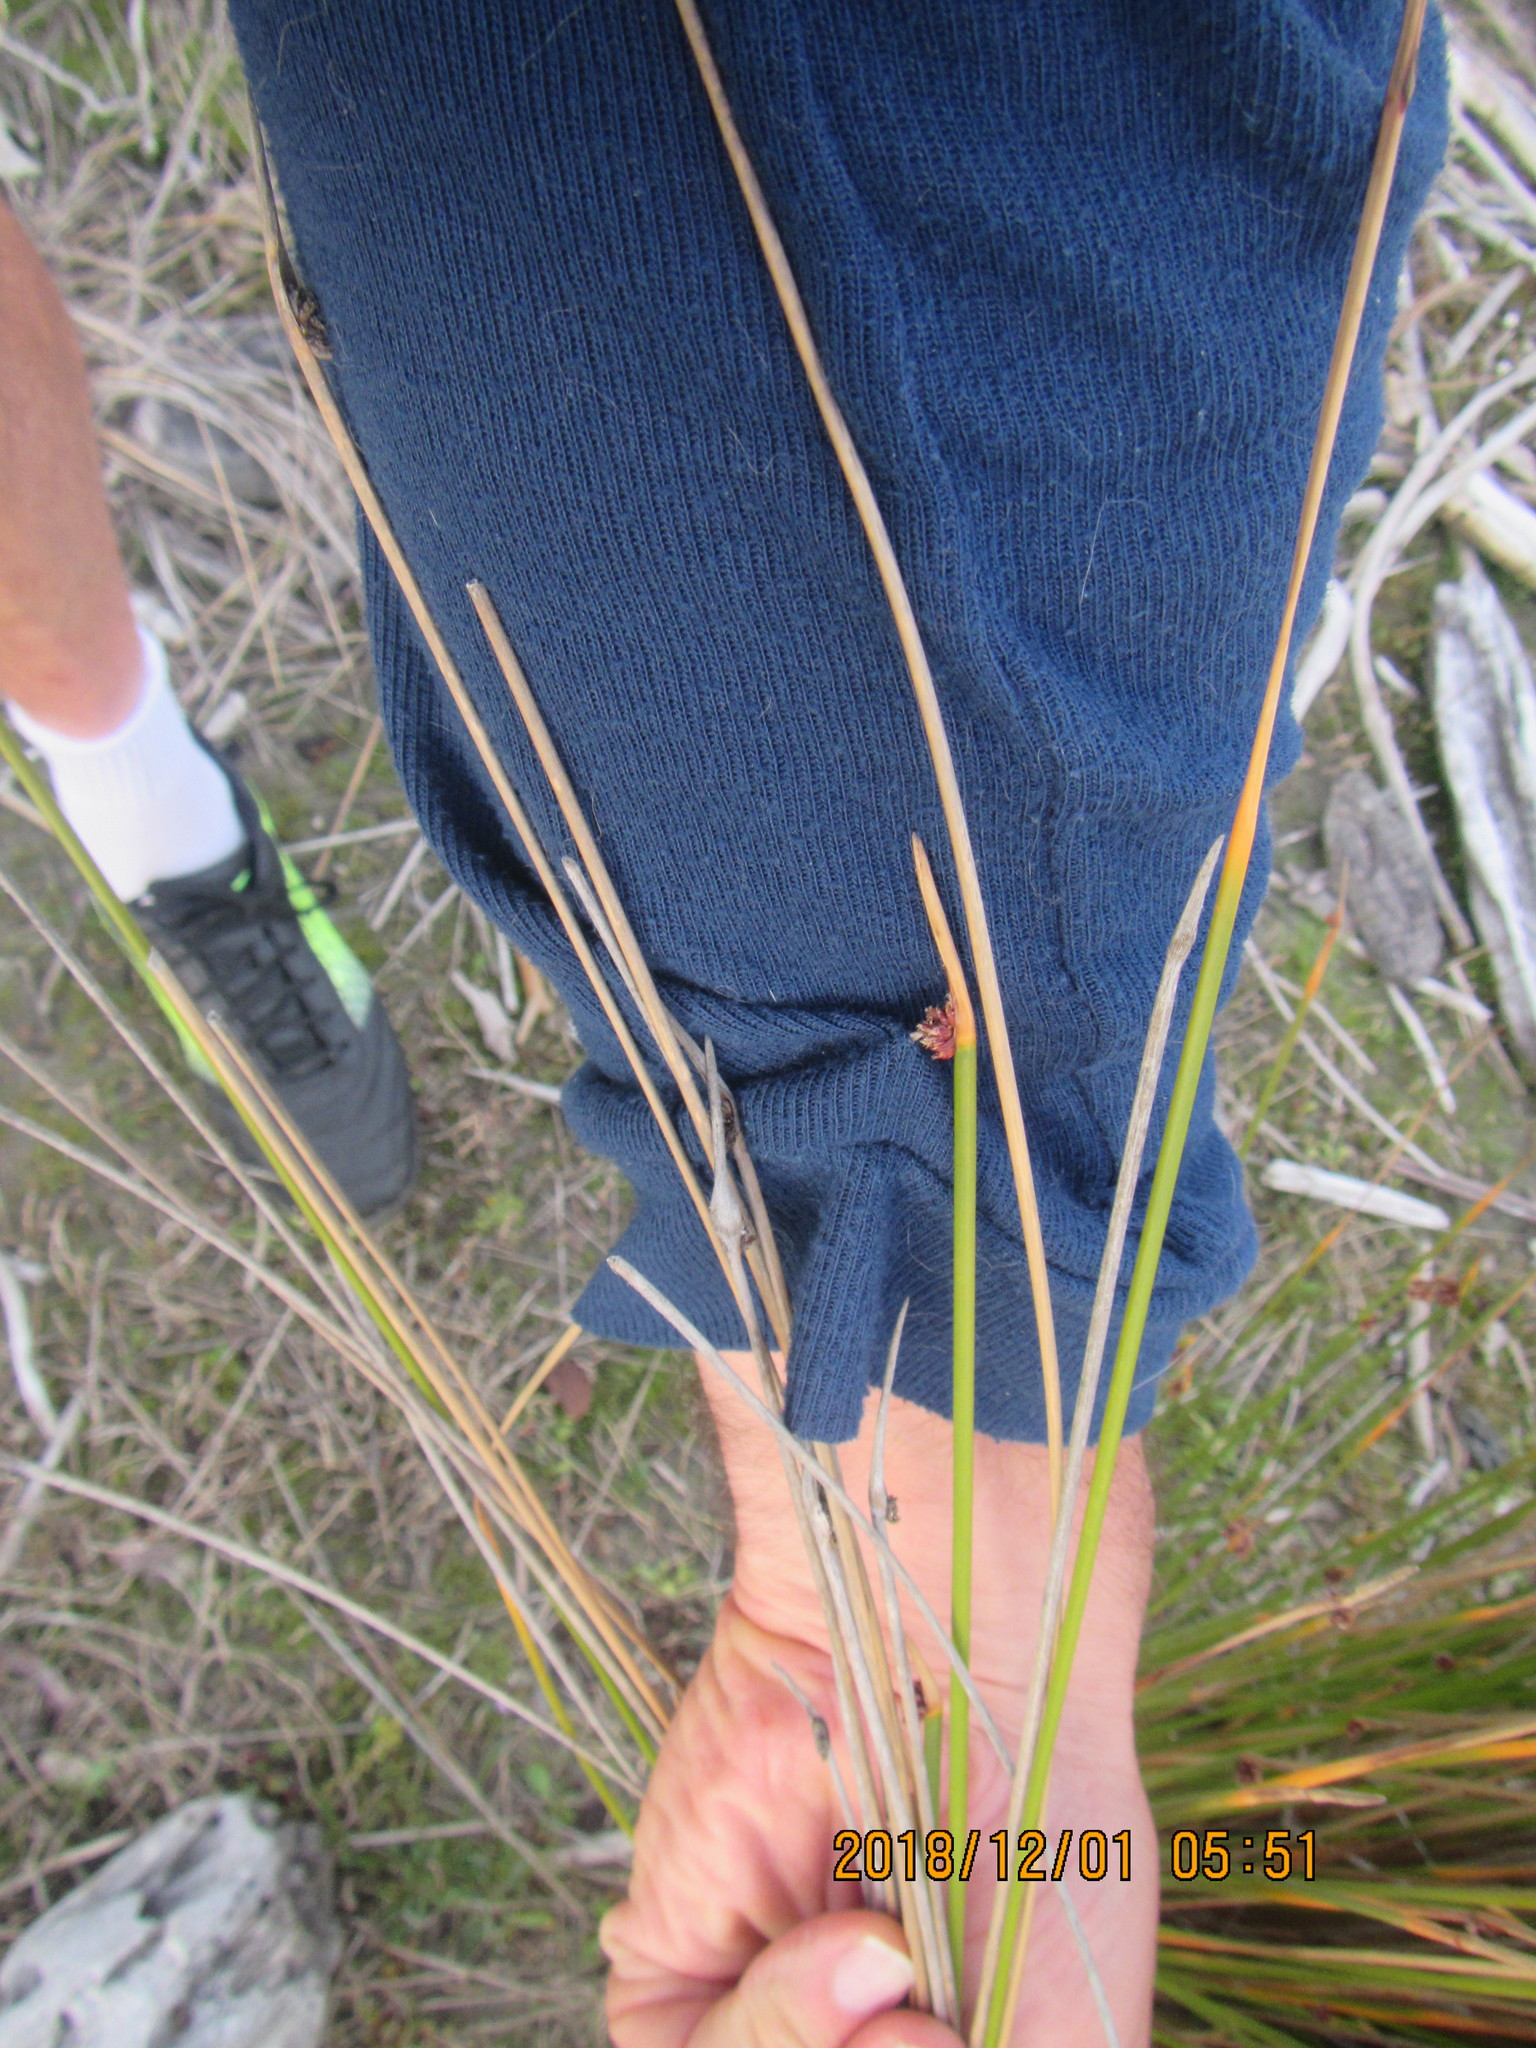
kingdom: Plantae
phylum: Tracheophyta
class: Liliopsida
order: Poales
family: Cyperaceae
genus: Ficinia
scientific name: Ficinia nodosa
